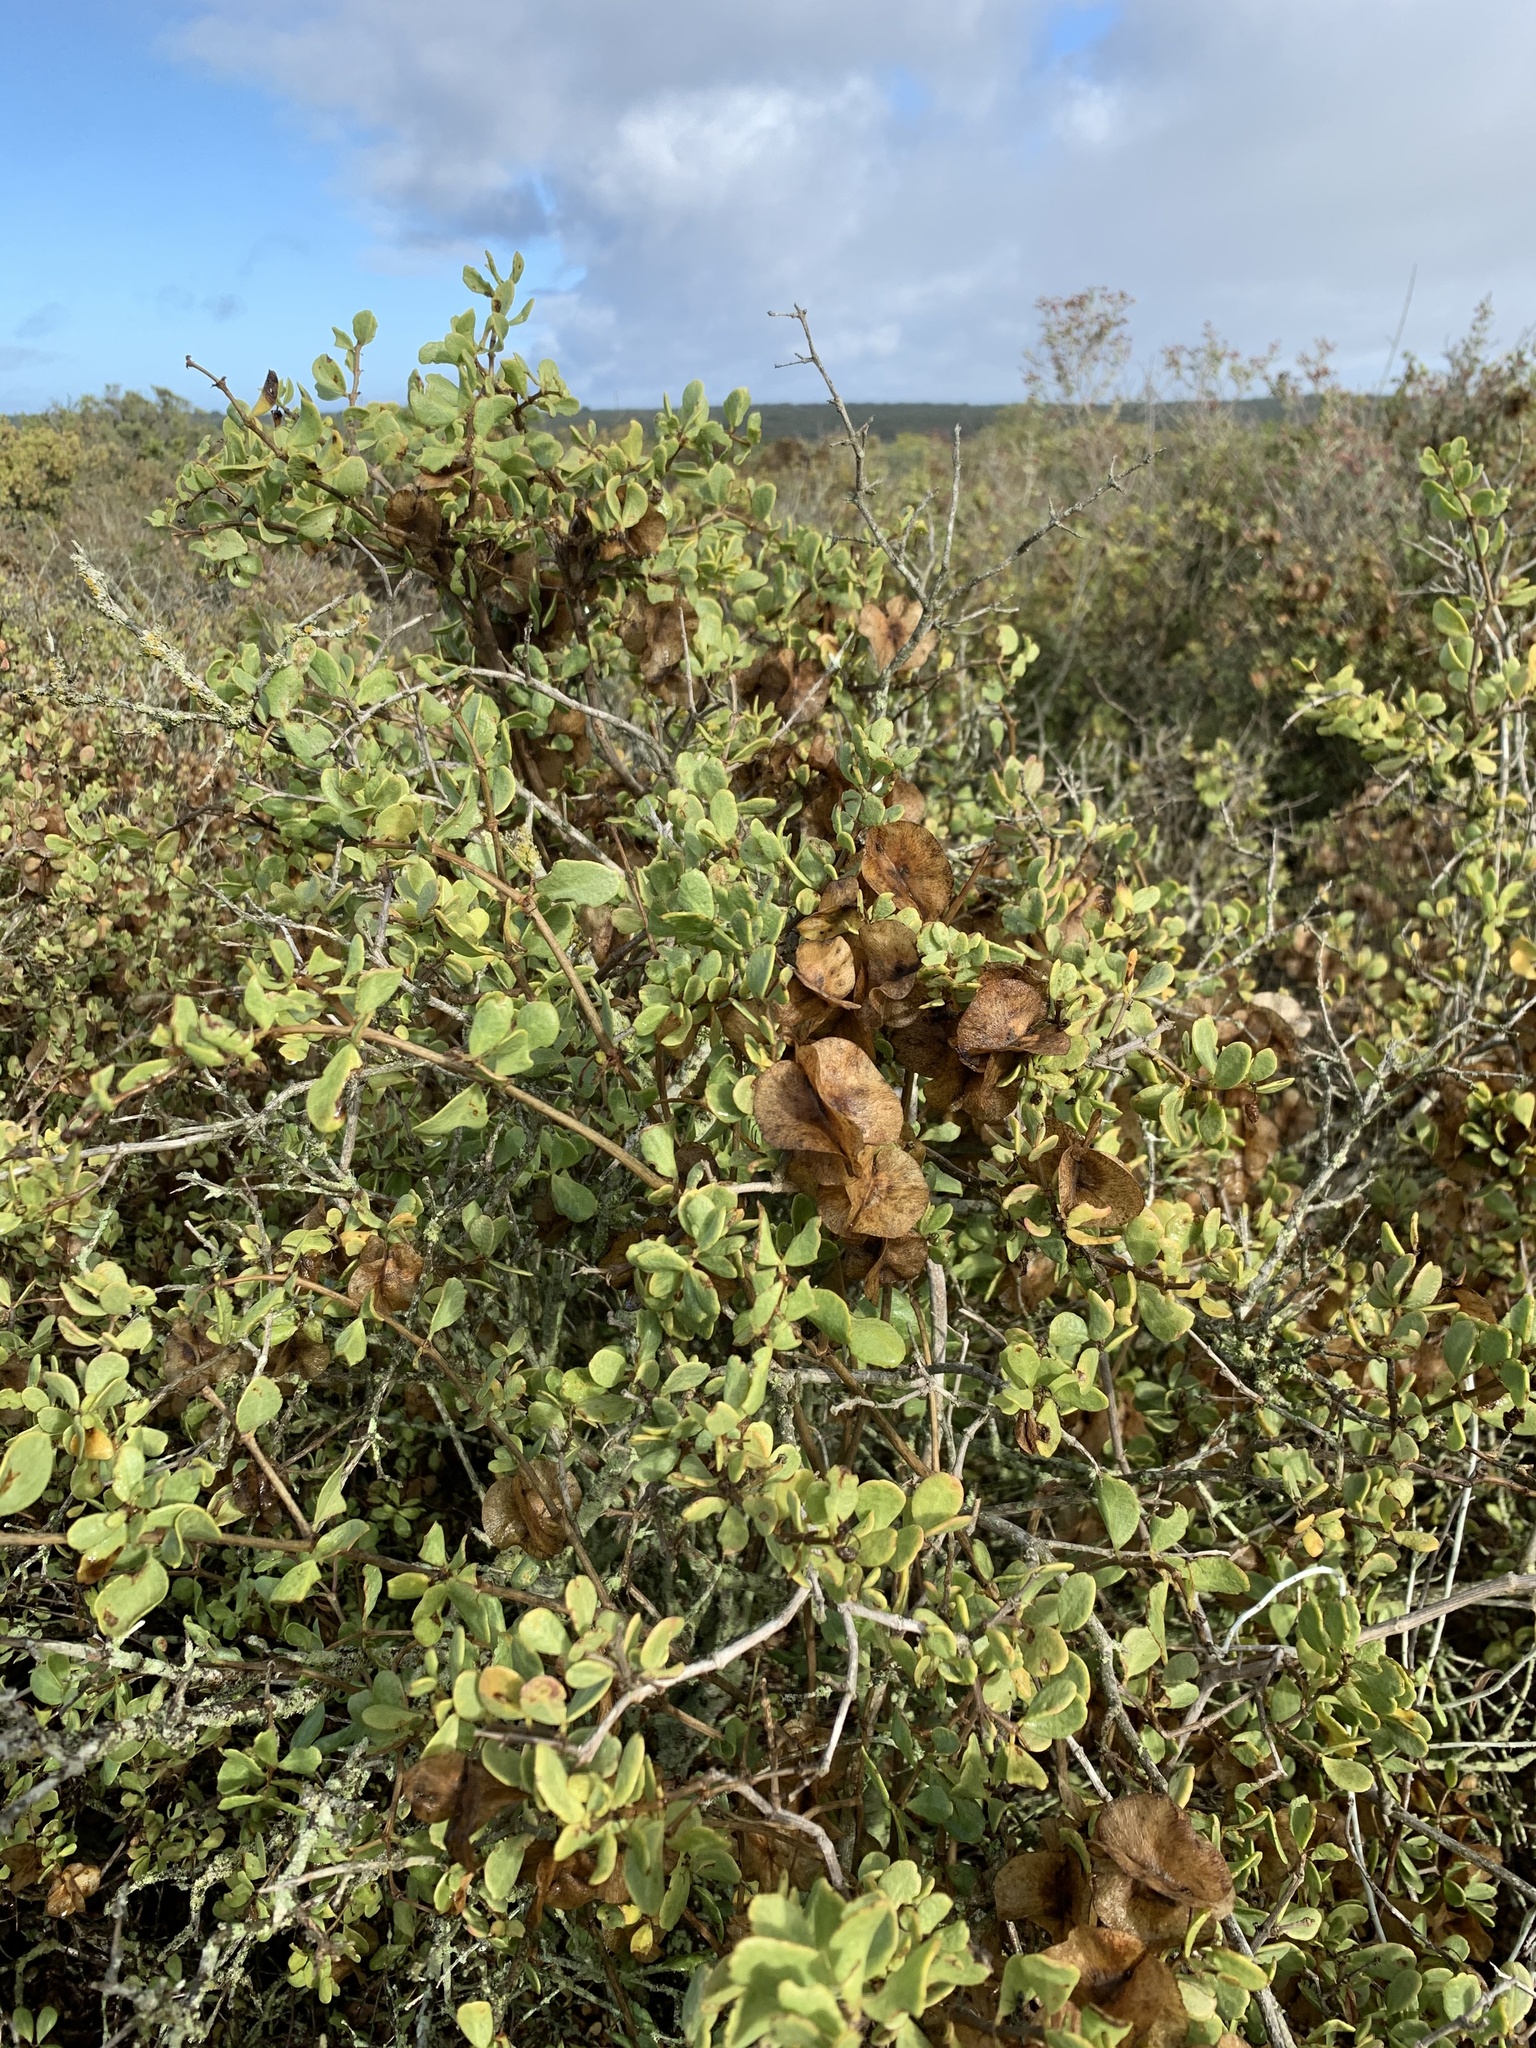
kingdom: Plantae
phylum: Tracheophyta
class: Magnoliopsida
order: Zygophyllales
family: Zygophyllaceae
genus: Roepera
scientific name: Roepera morgsana
